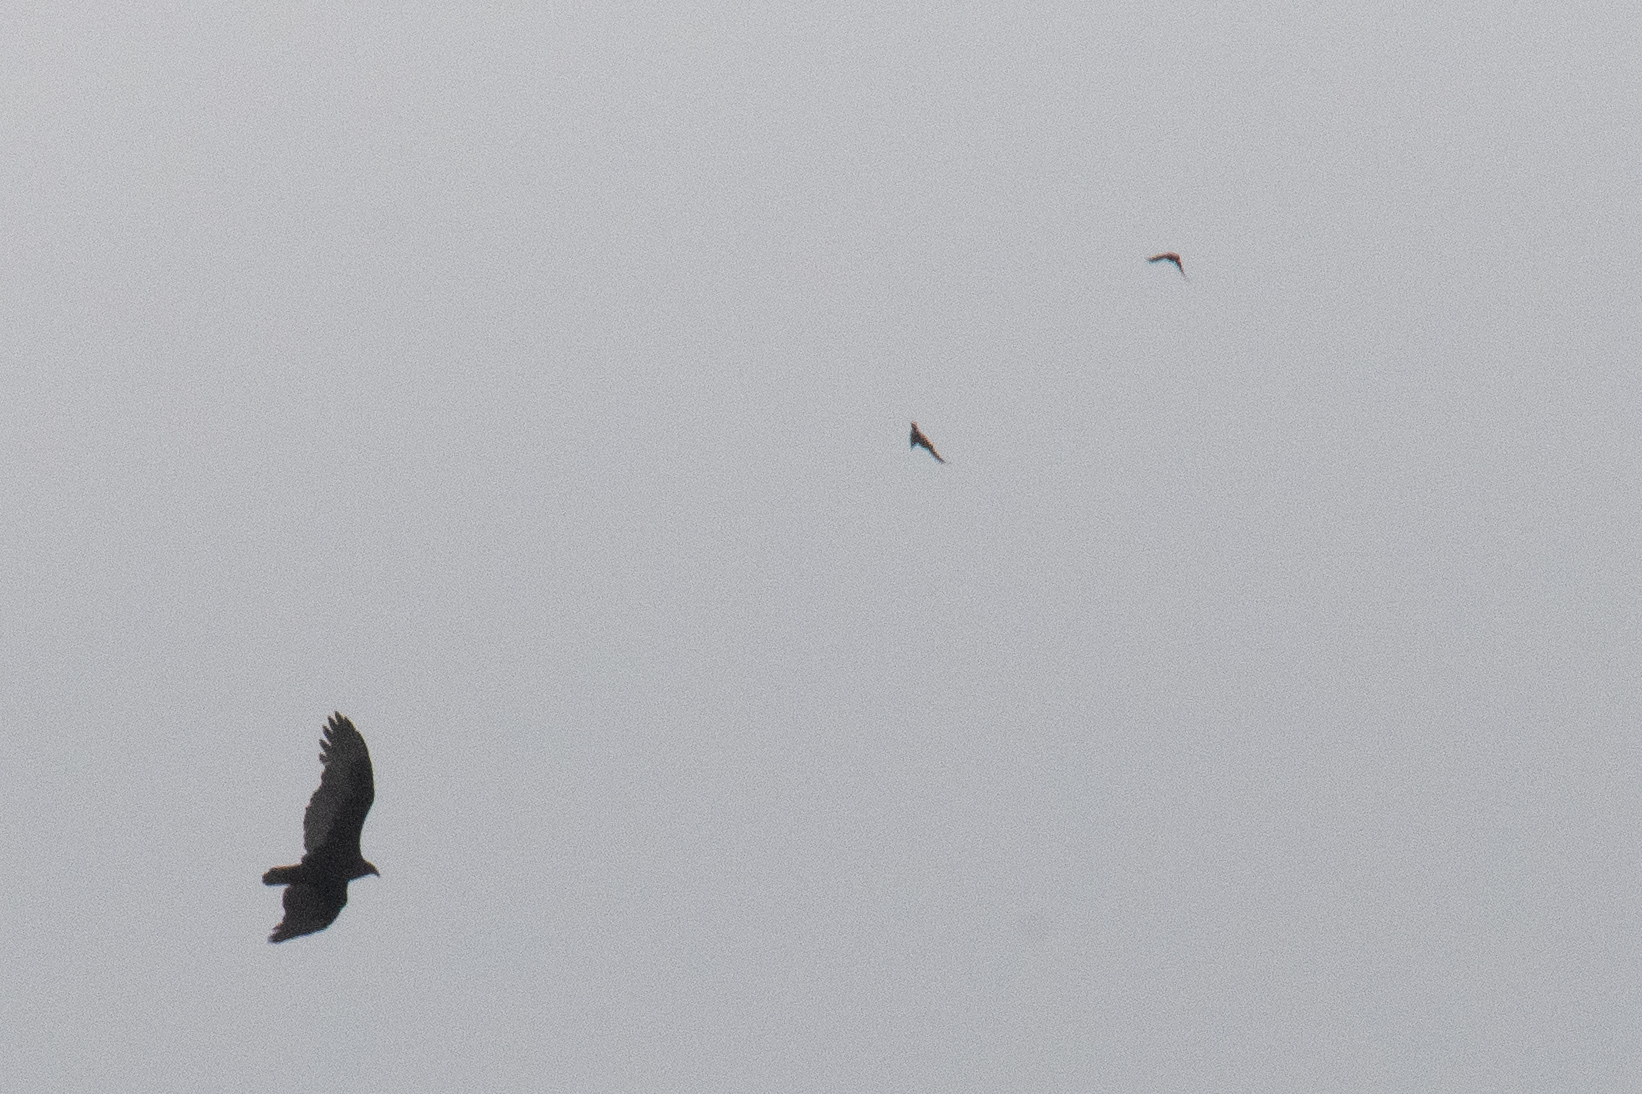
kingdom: Animalia
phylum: Chordata
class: Aves
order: Accipitriformes
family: Cathartidae
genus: Cathartes
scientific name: Cathartes aura
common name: Turkey vulture
